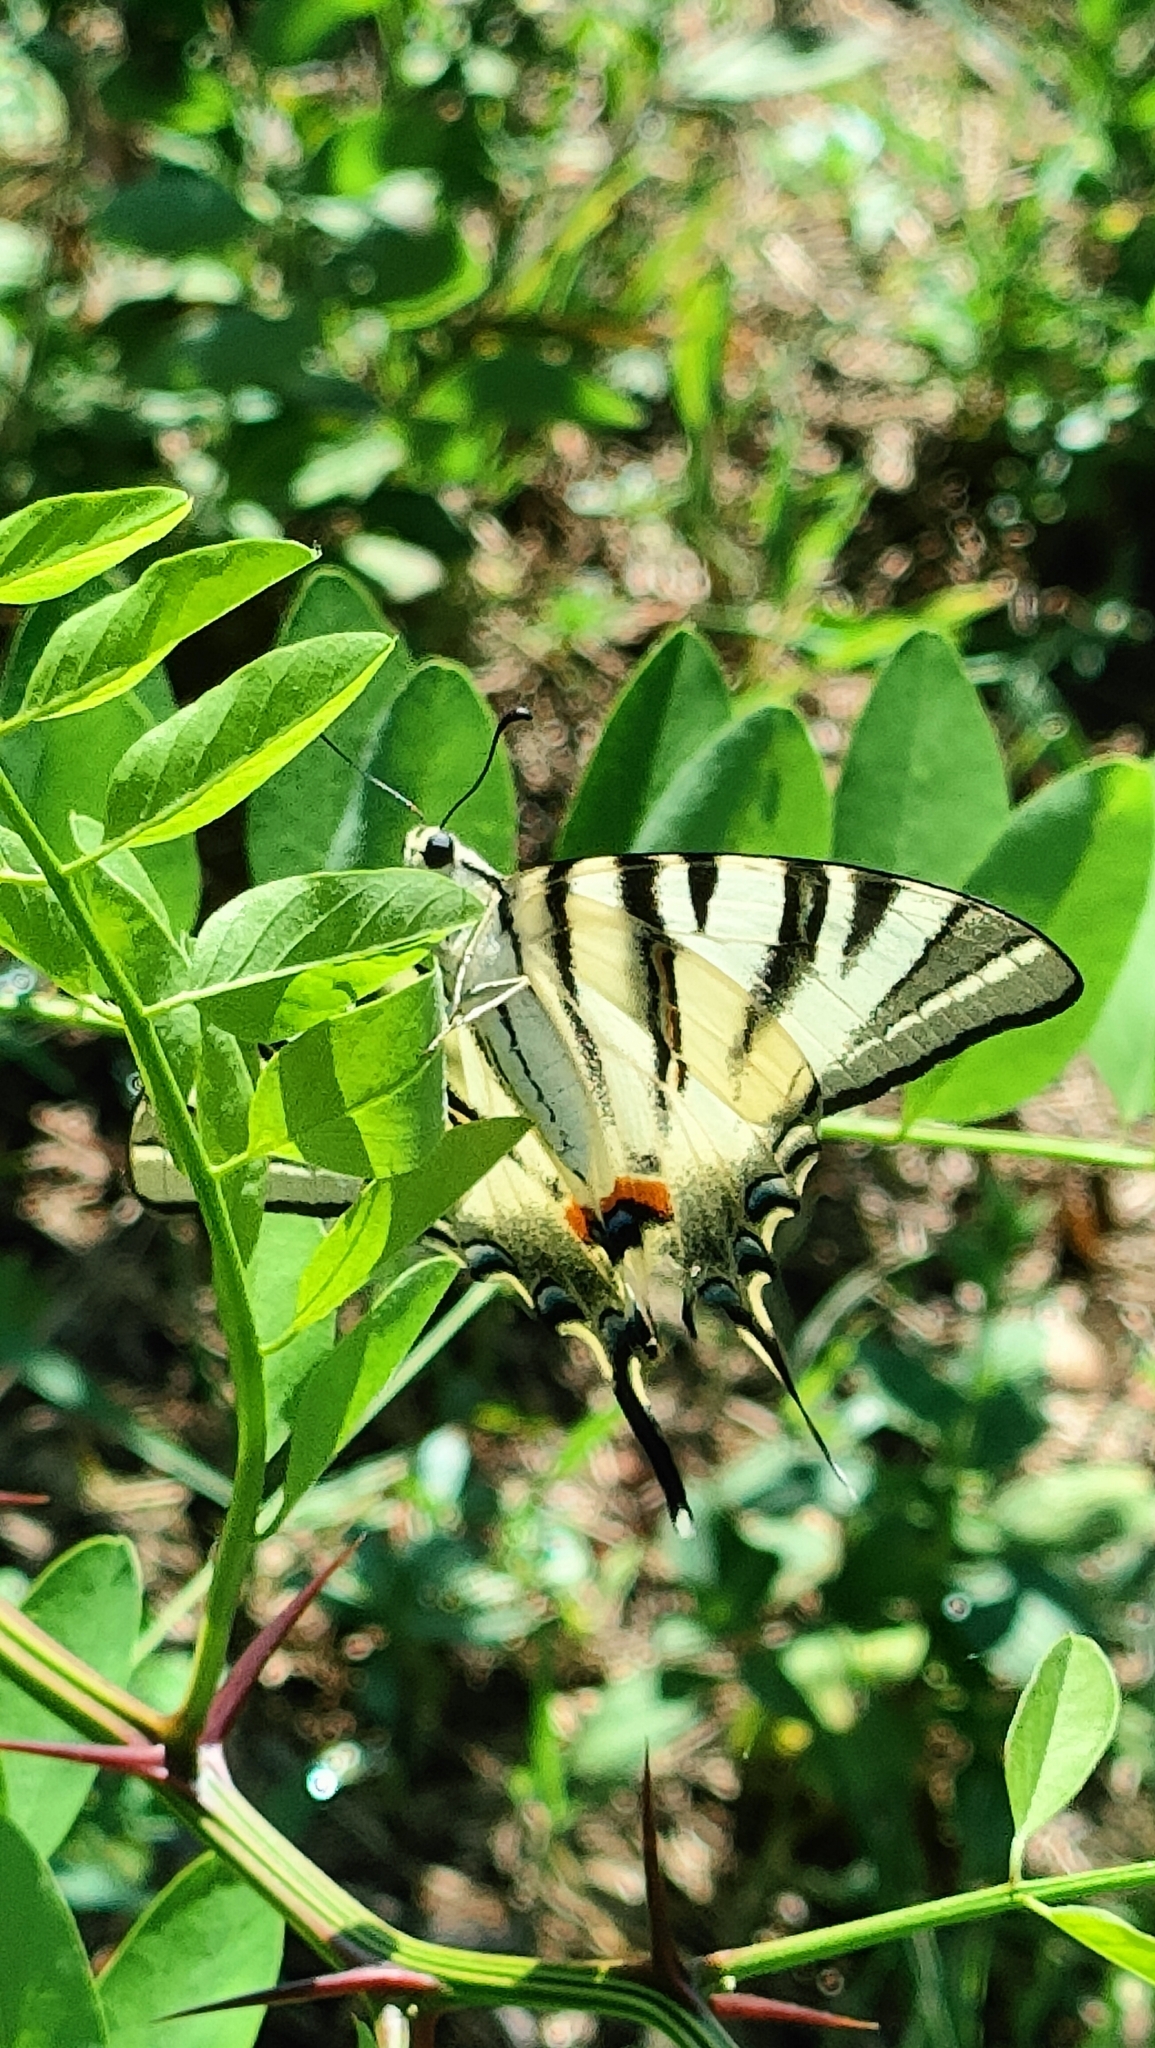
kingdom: Animalia
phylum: Arthropoda
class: Insecta
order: Lepidoptera
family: Papilionidae
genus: Iphiclides
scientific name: Iphiclides podalirius
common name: Scarce swallowtail
